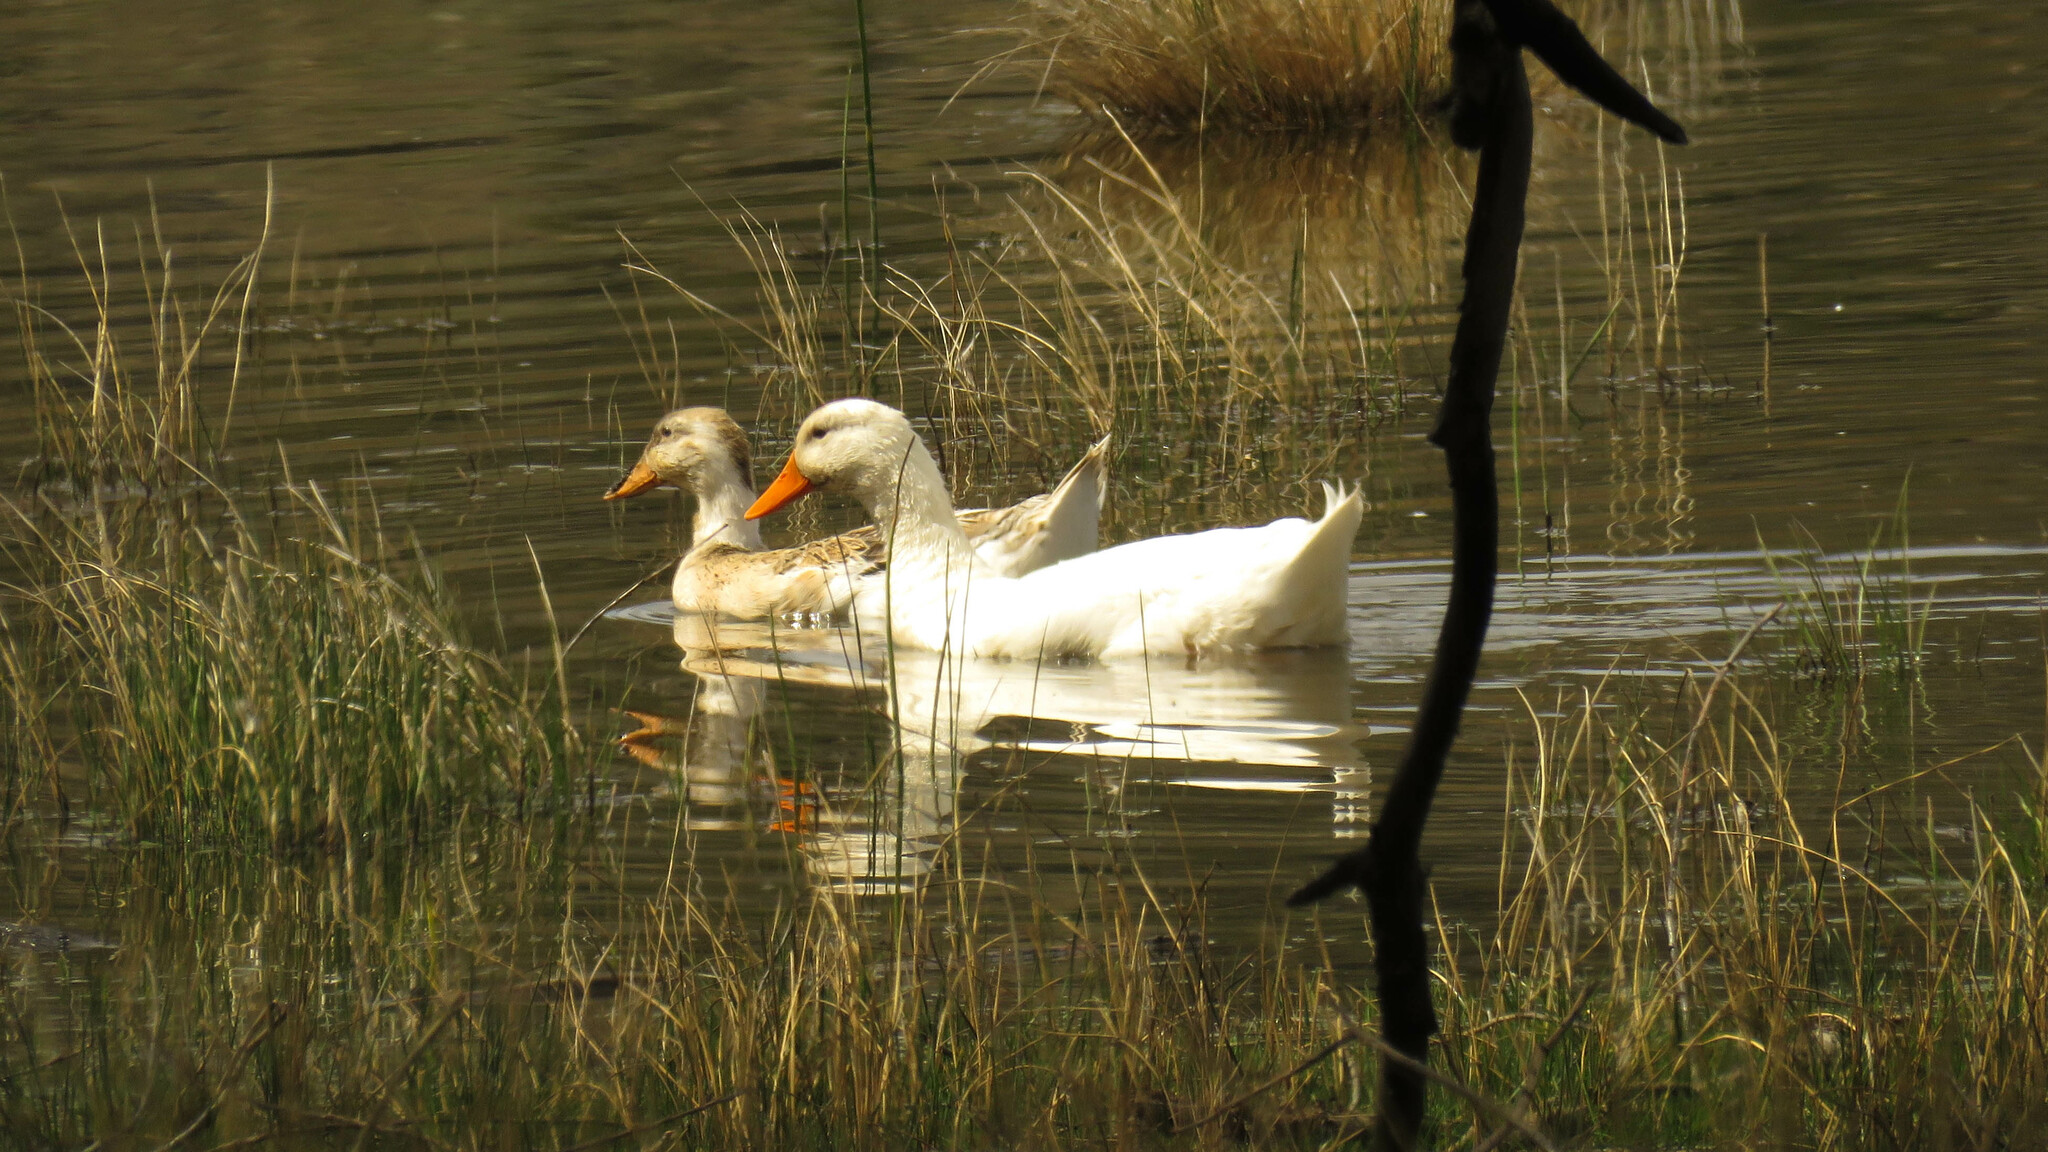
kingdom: Animalia
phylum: Chordata
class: Aves
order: Anseriformes
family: Anatidae
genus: Anas
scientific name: Anas platyrhynchos
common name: Mallard
